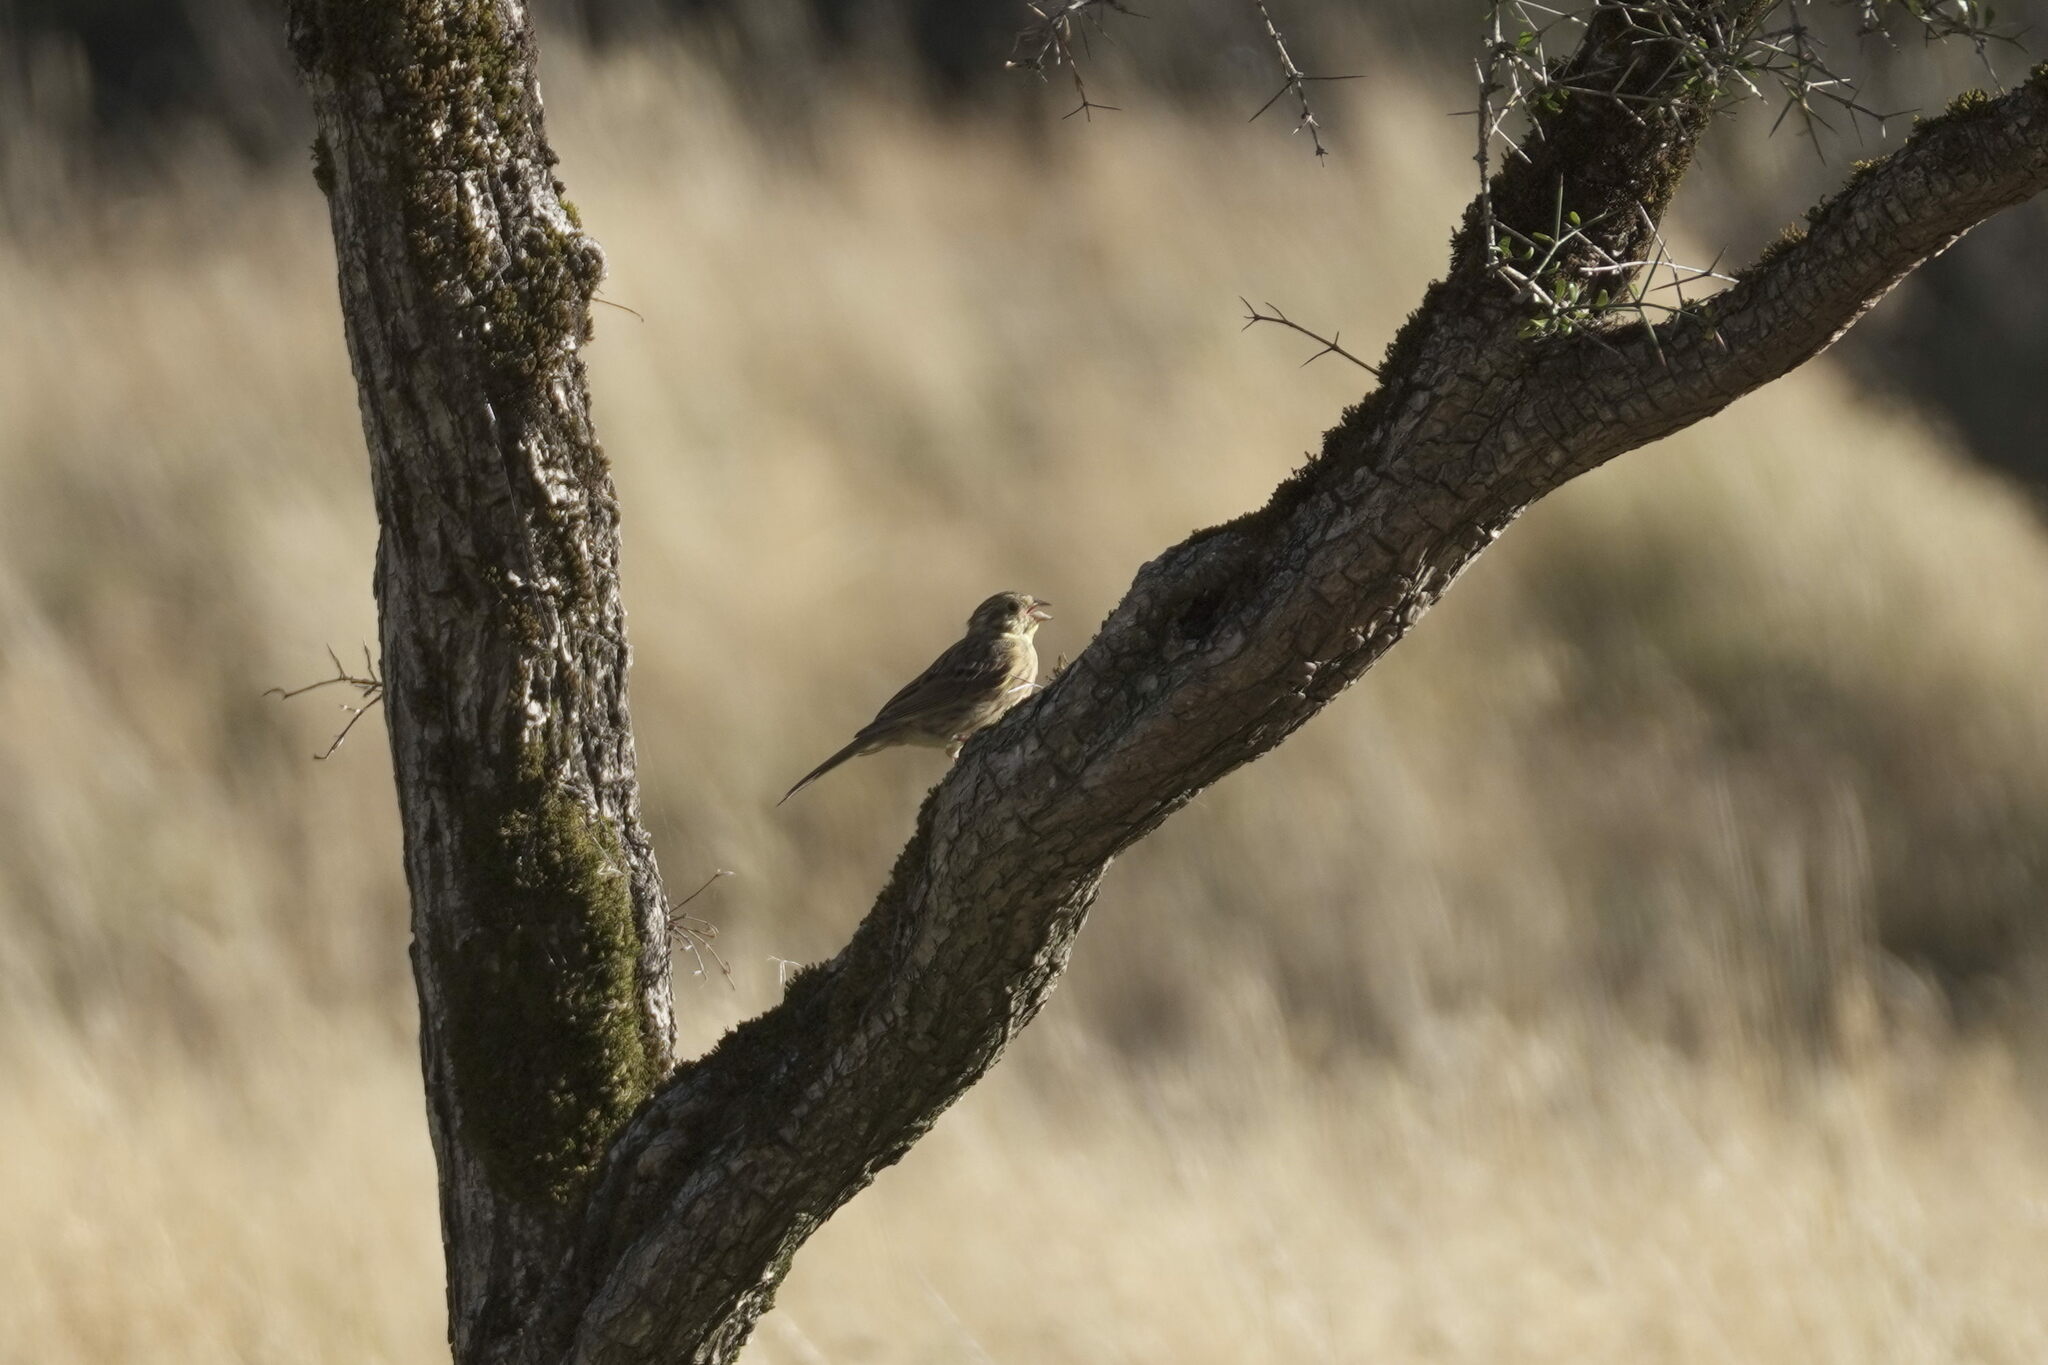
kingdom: Animalia
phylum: Chordata
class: Aves
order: Passeriformes
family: Emberizidae
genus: Emberiza
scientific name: Emberiza citrinella
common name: Yellowhammer
